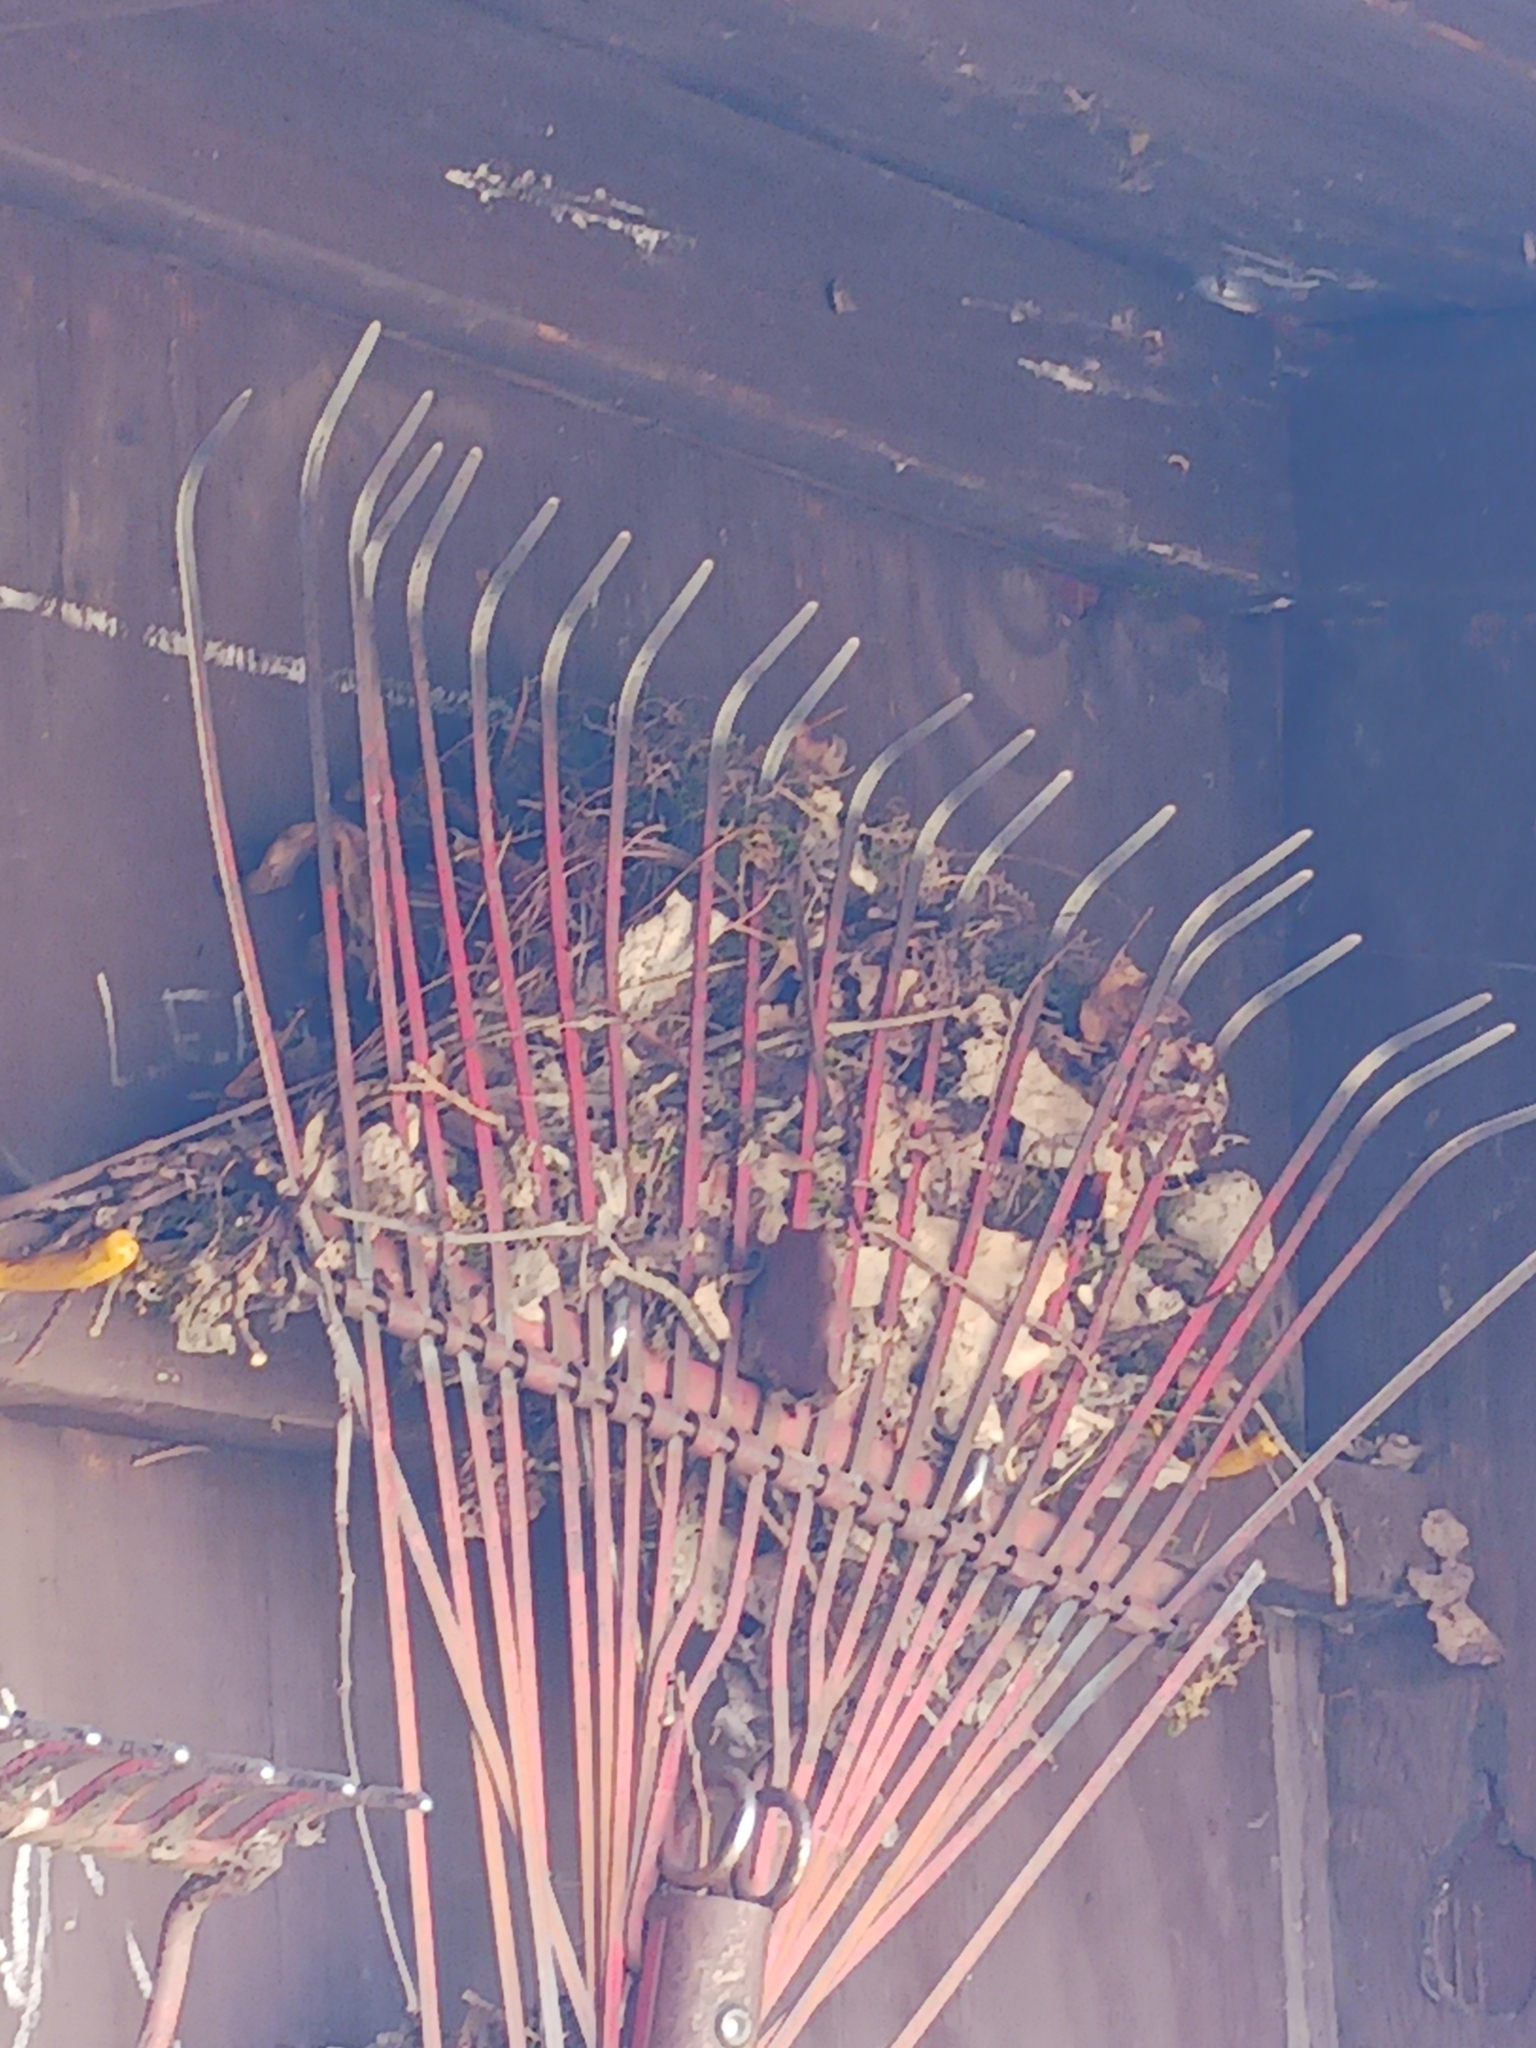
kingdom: Animalia
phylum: Chordata
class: Aves
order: Passeriformes
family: Troglodytidae
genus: Thryothorus
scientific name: Thryothorus ludovicianus
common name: Carolina wren
